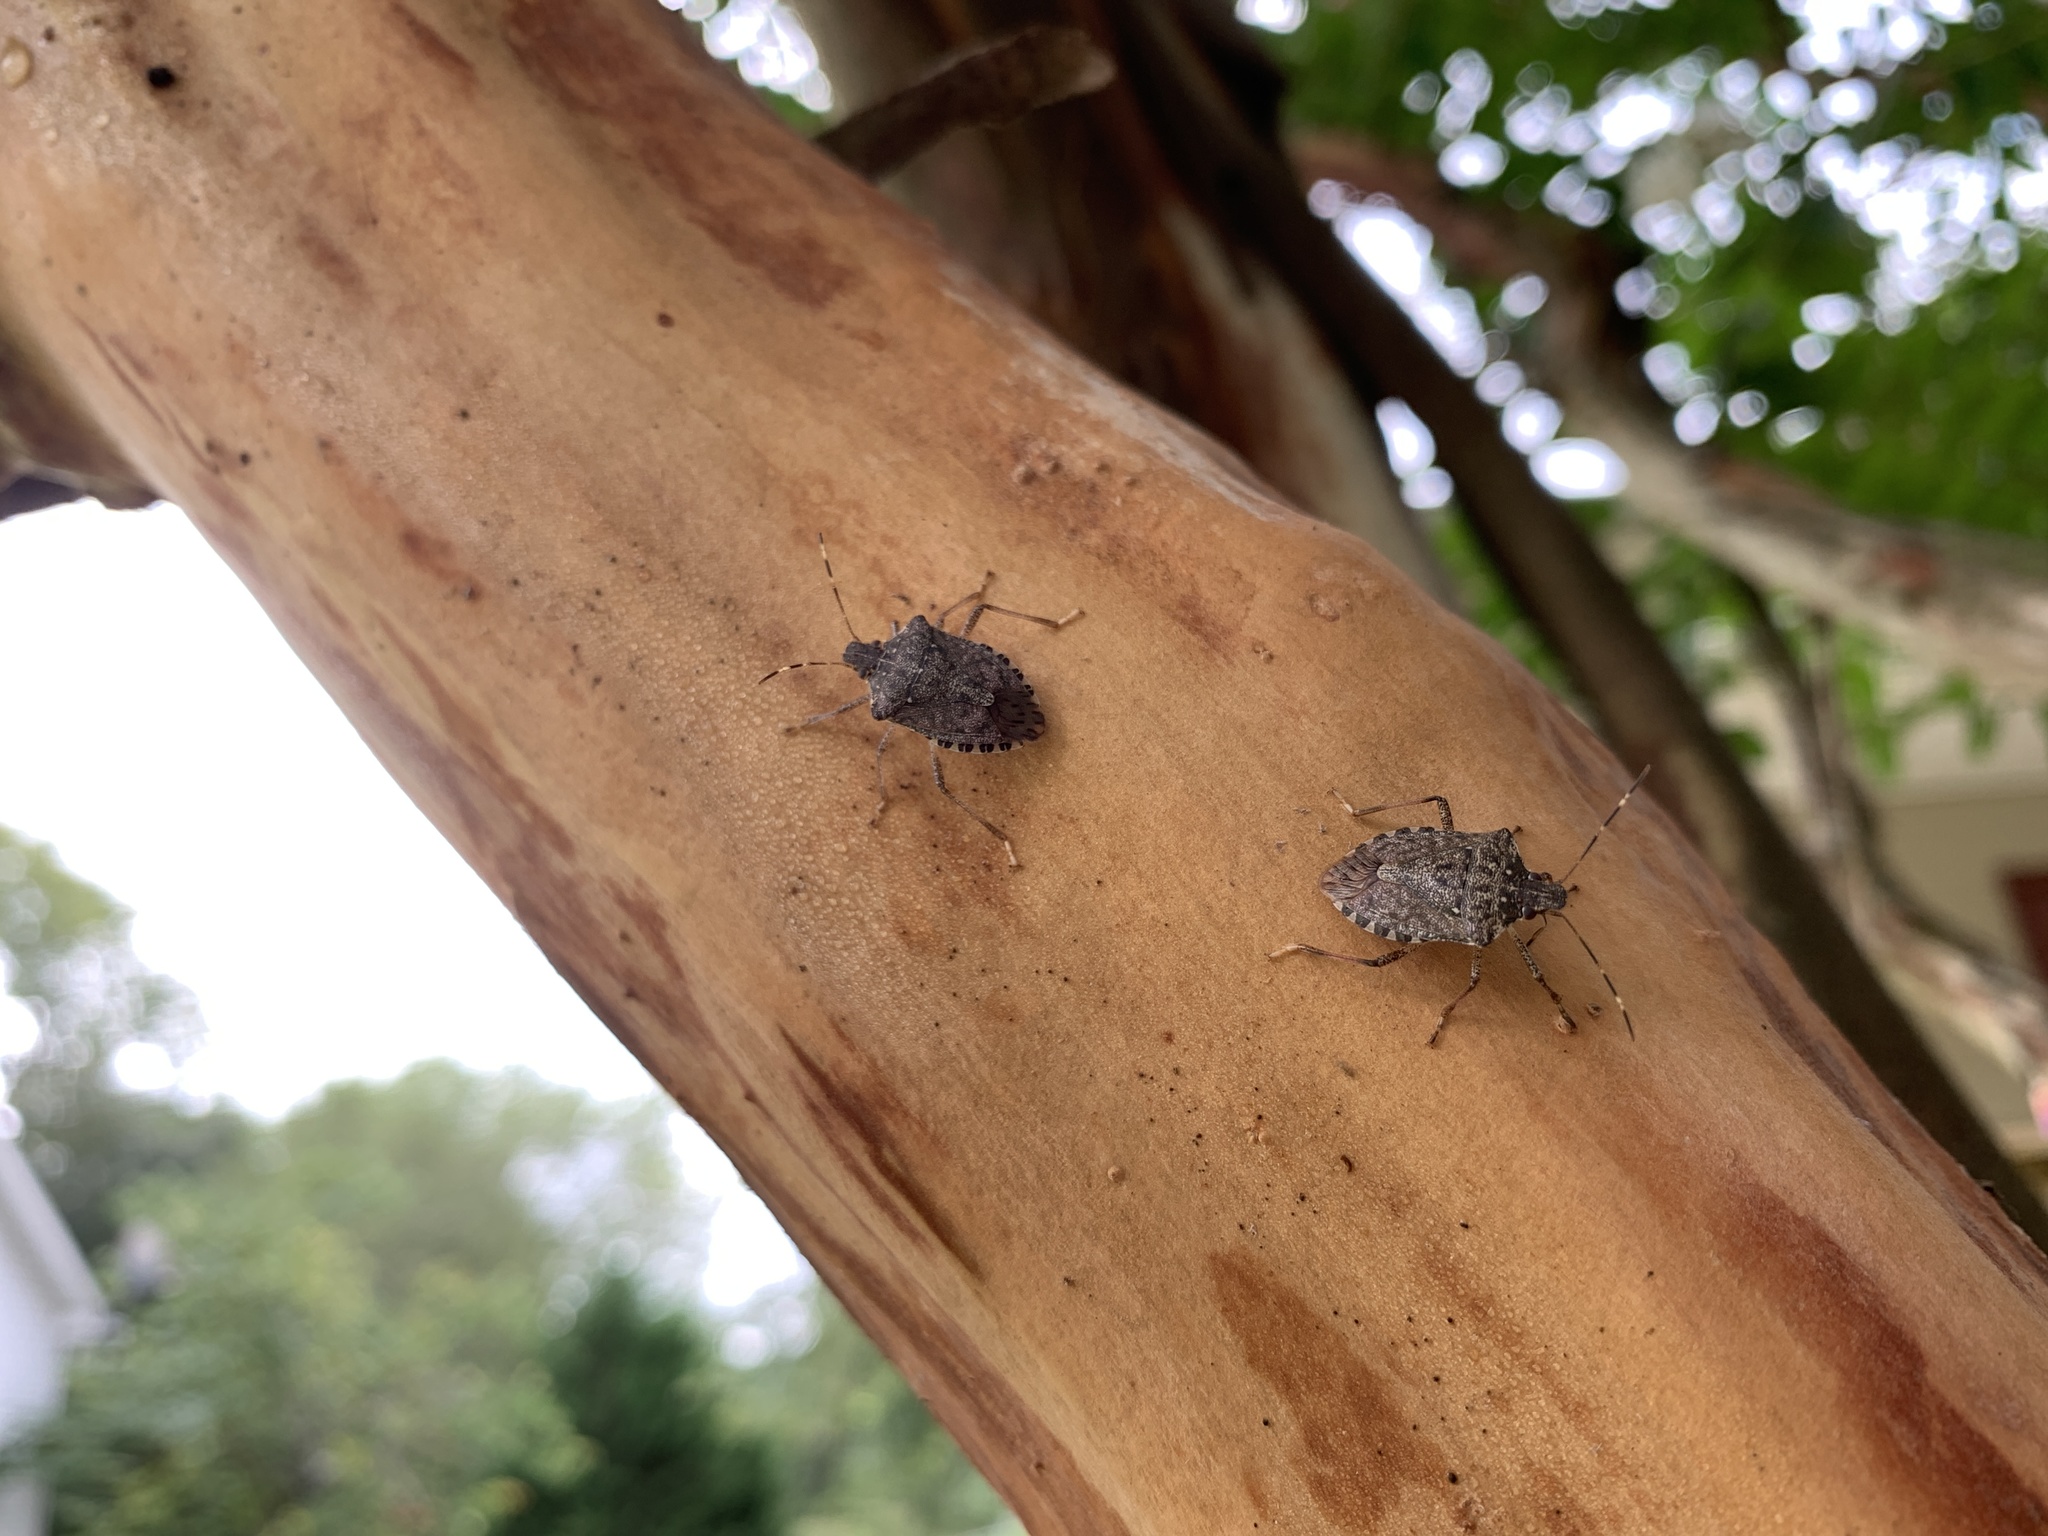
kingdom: Animalia
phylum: Arthropoda
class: Insecta
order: Hemiptera
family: Pentatomidae
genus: Halyomorpha
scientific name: Halyomorpha halys
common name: Brown marmorated stink bug
